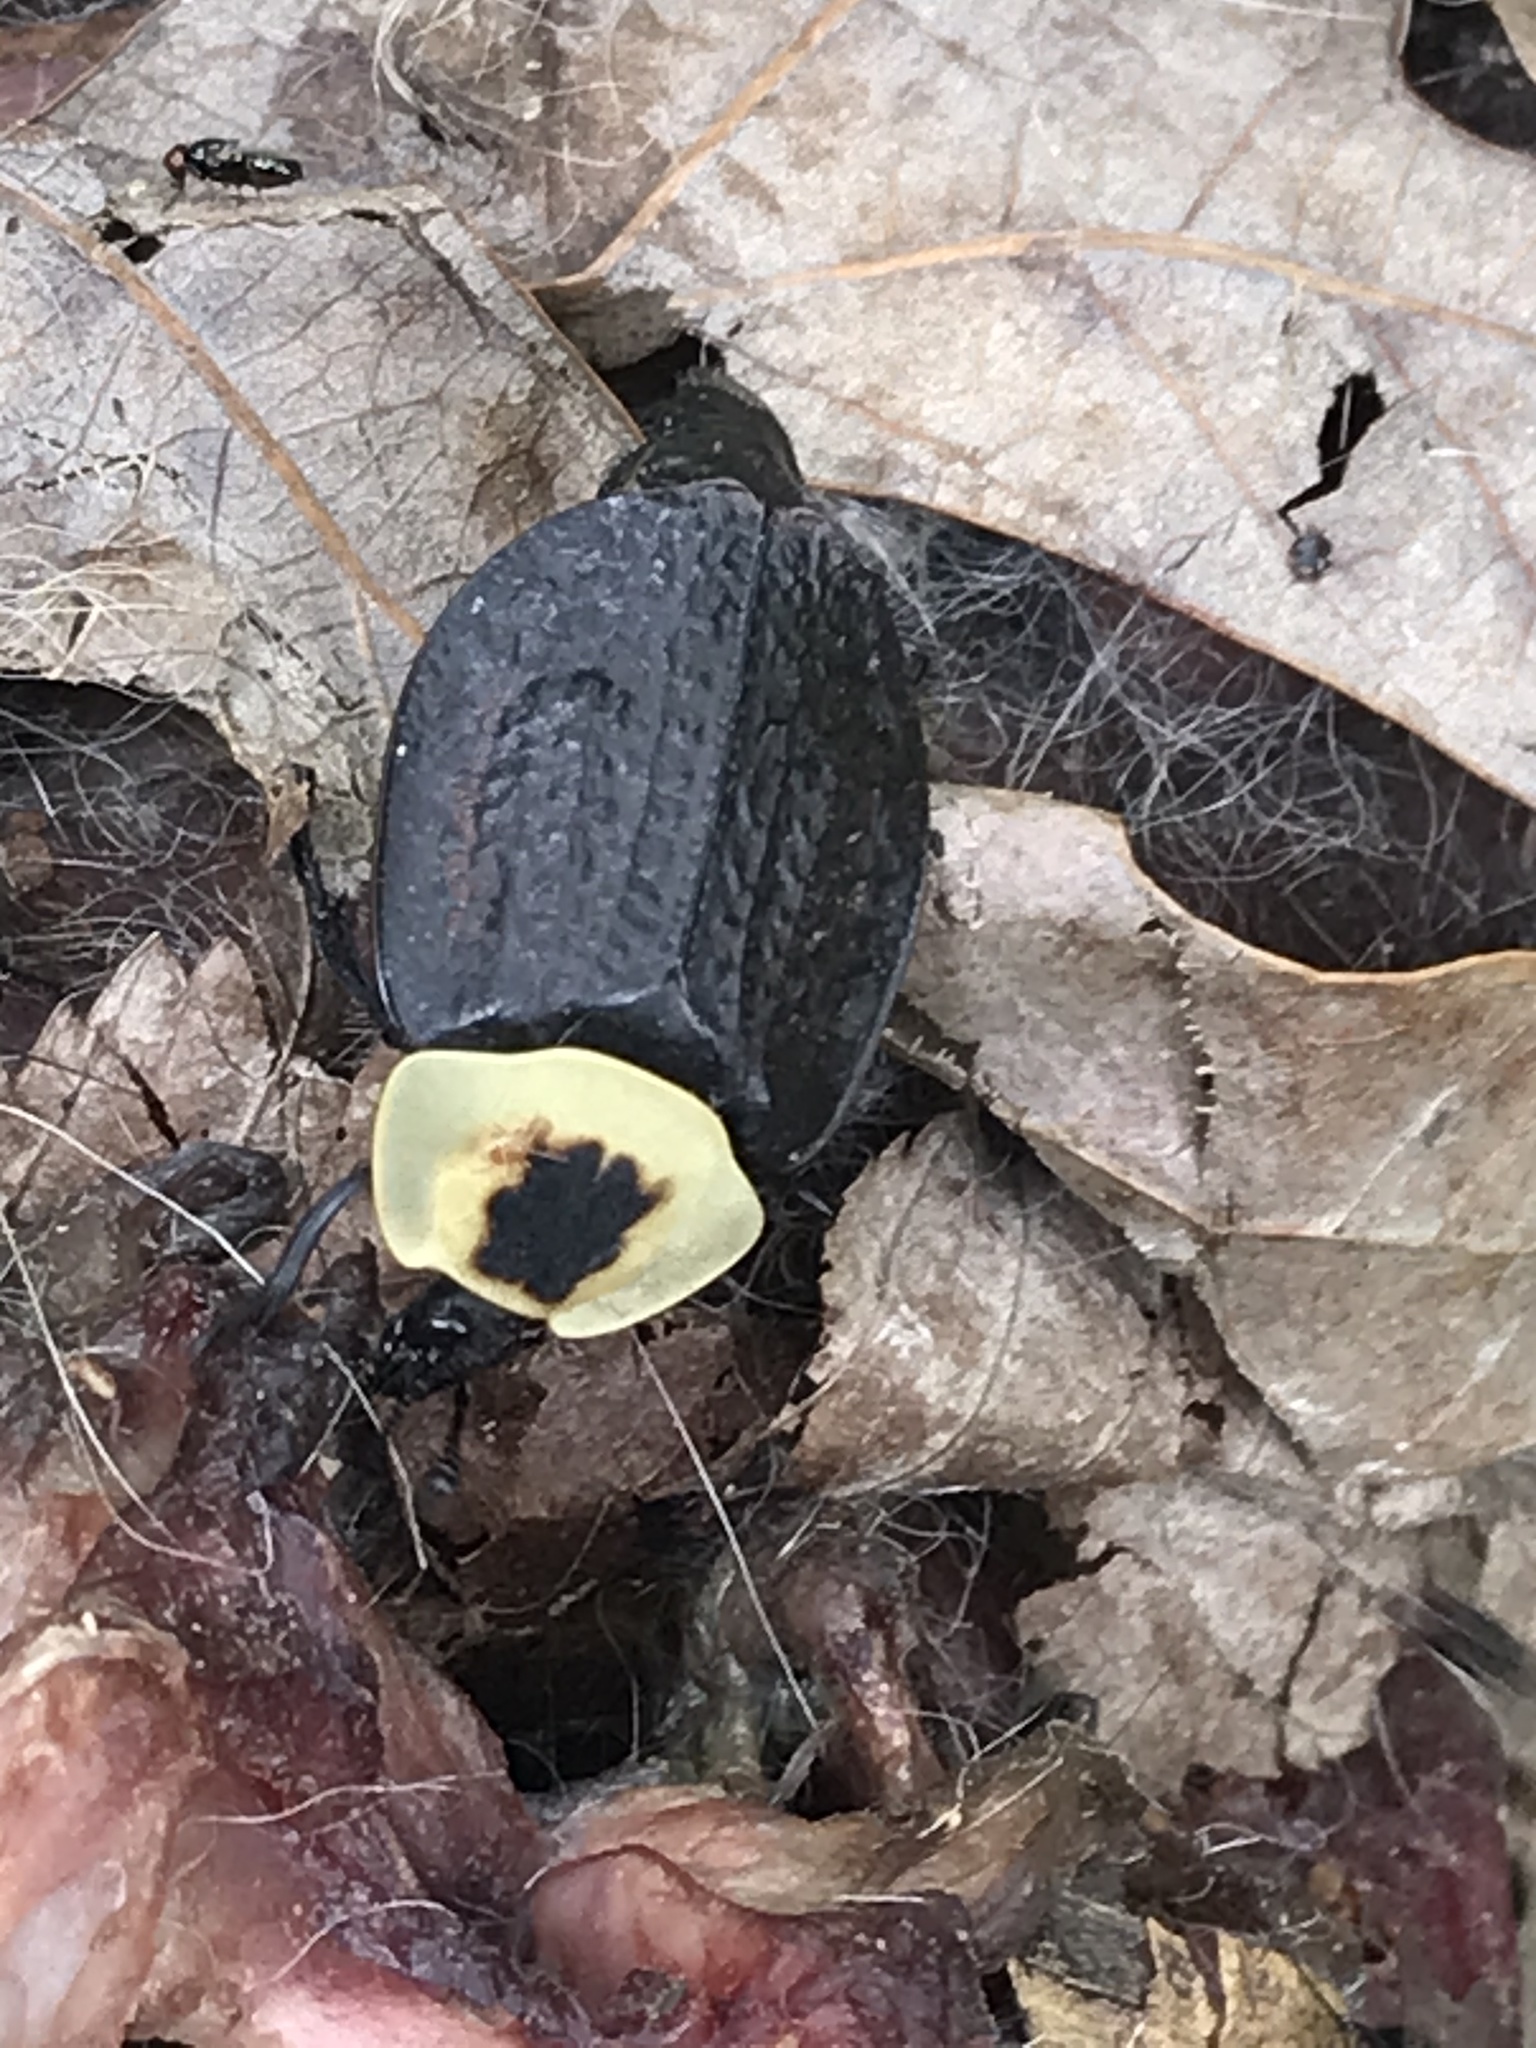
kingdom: Animalia
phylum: Arthropoda
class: Insecta
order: Coleoptera
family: Staphylinidae
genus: Necrophila
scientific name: Necrophila americana
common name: American carrion beetle
